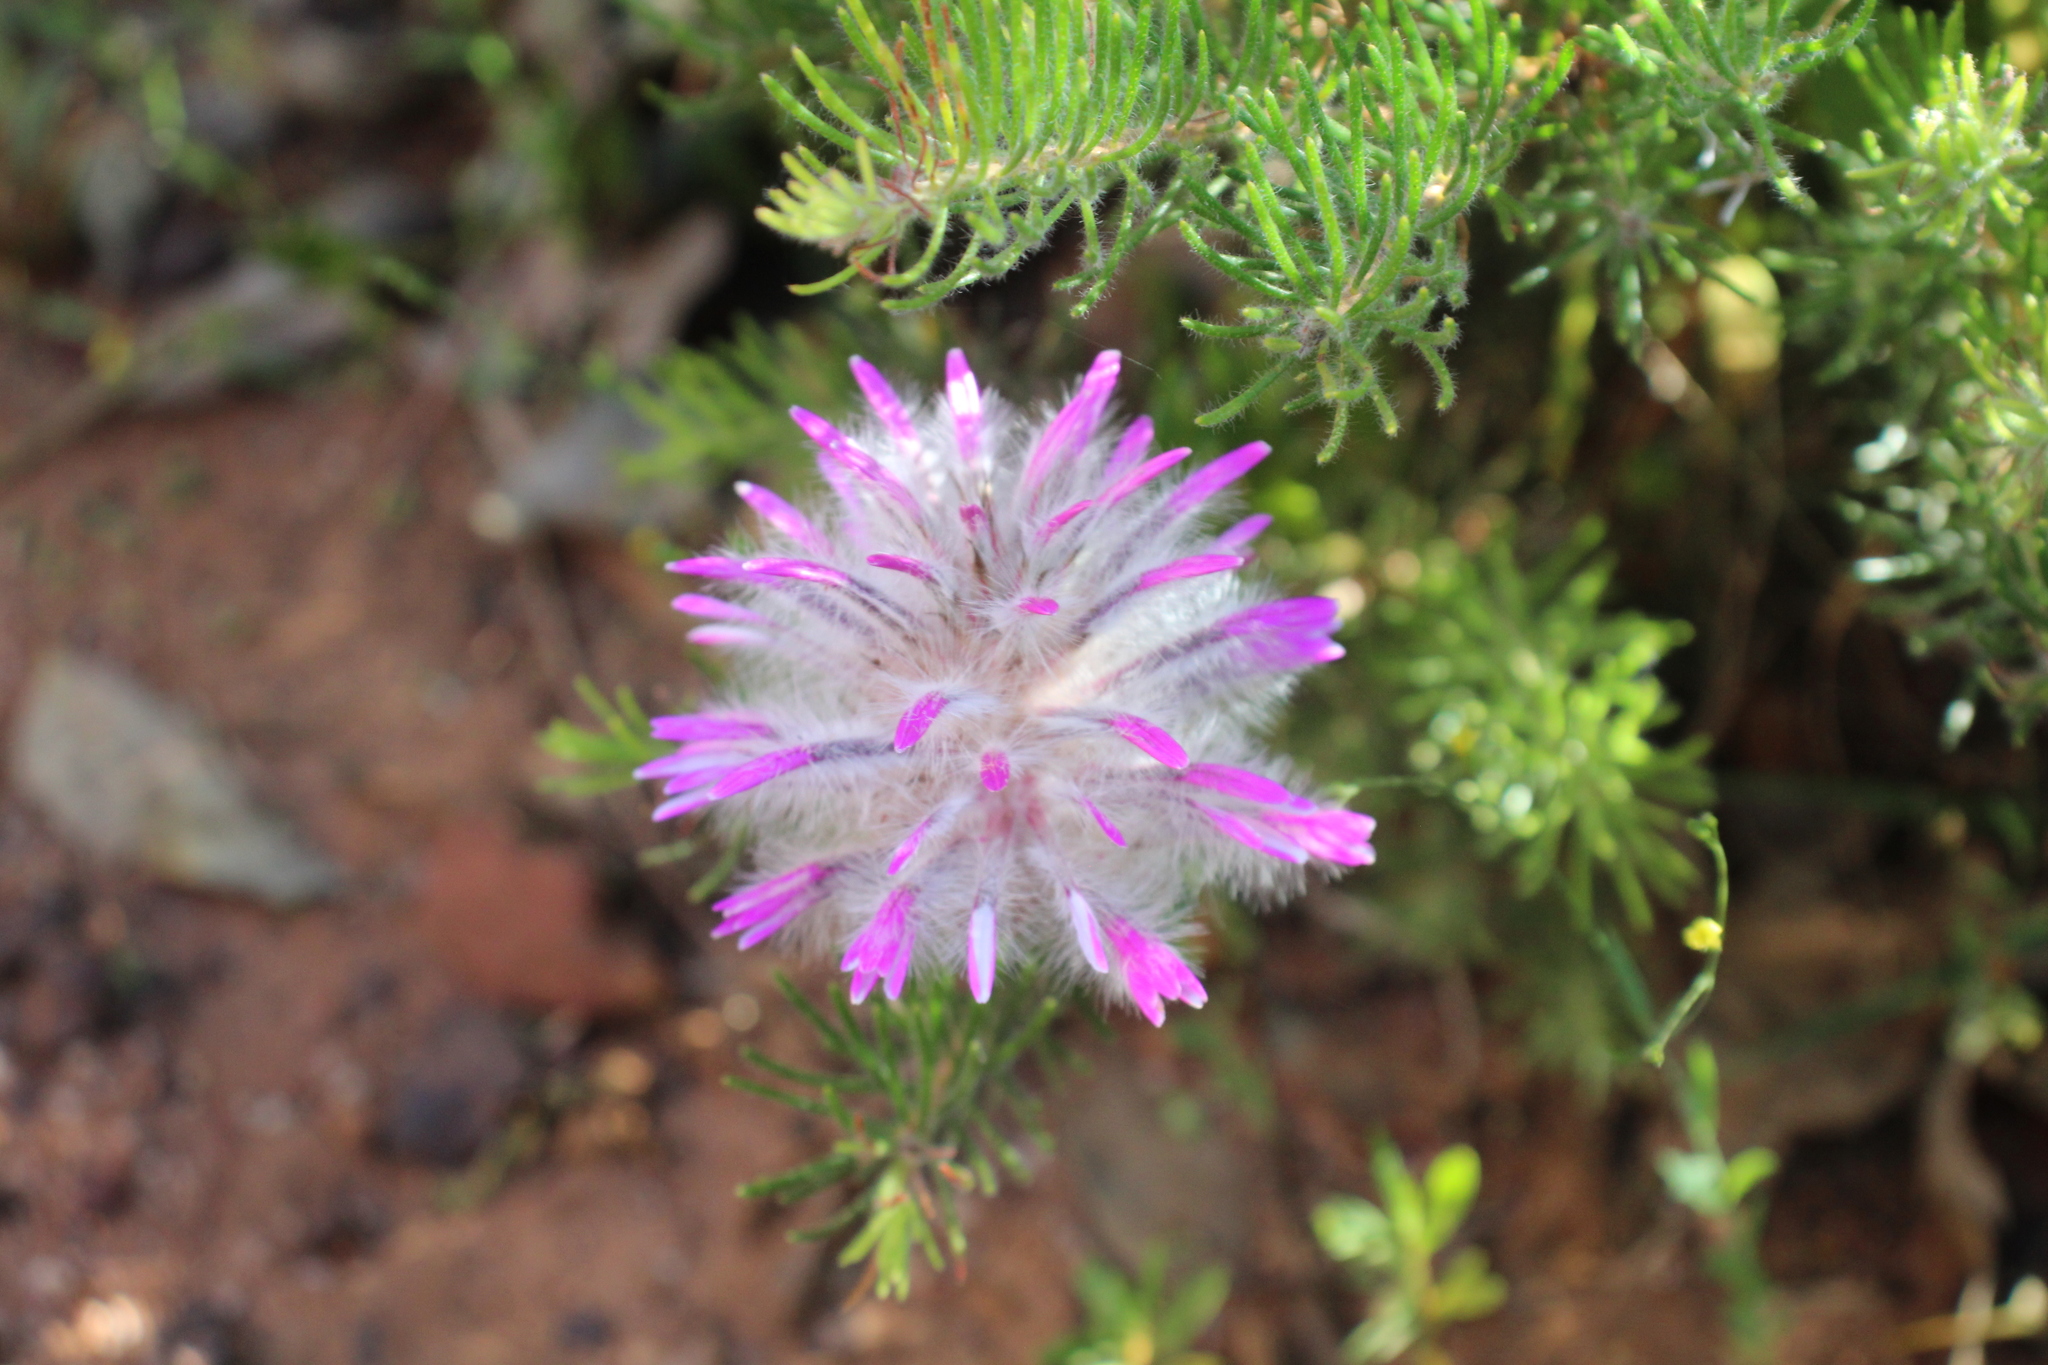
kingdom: Plantae
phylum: Tracheophyta
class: Magnoliopsida
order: Caryophyllales
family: Amaranthaceae
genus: Ptilotus
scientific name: Ptilotus manglesii
